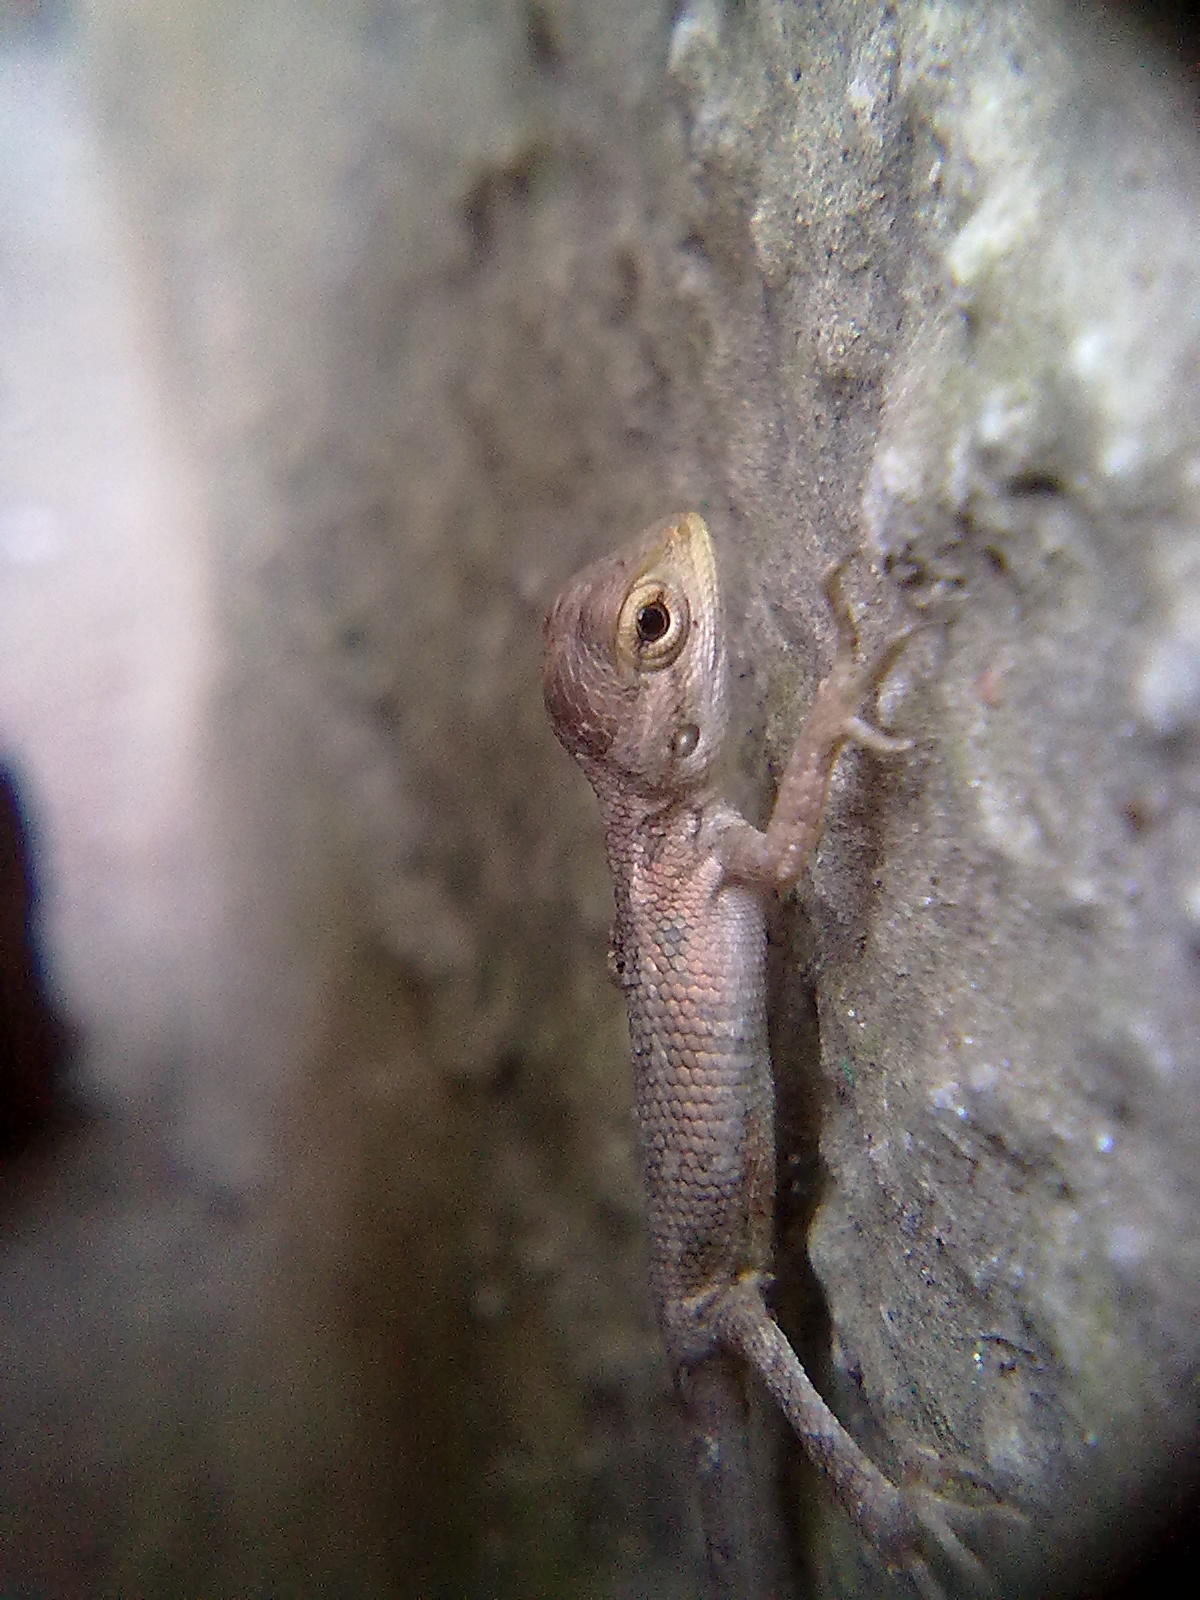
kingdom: Animalia
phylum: Chordata
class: Squamata
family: Agamidae
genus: Calotes
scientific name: Calotes versicolor
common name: Oriental garden lizard
